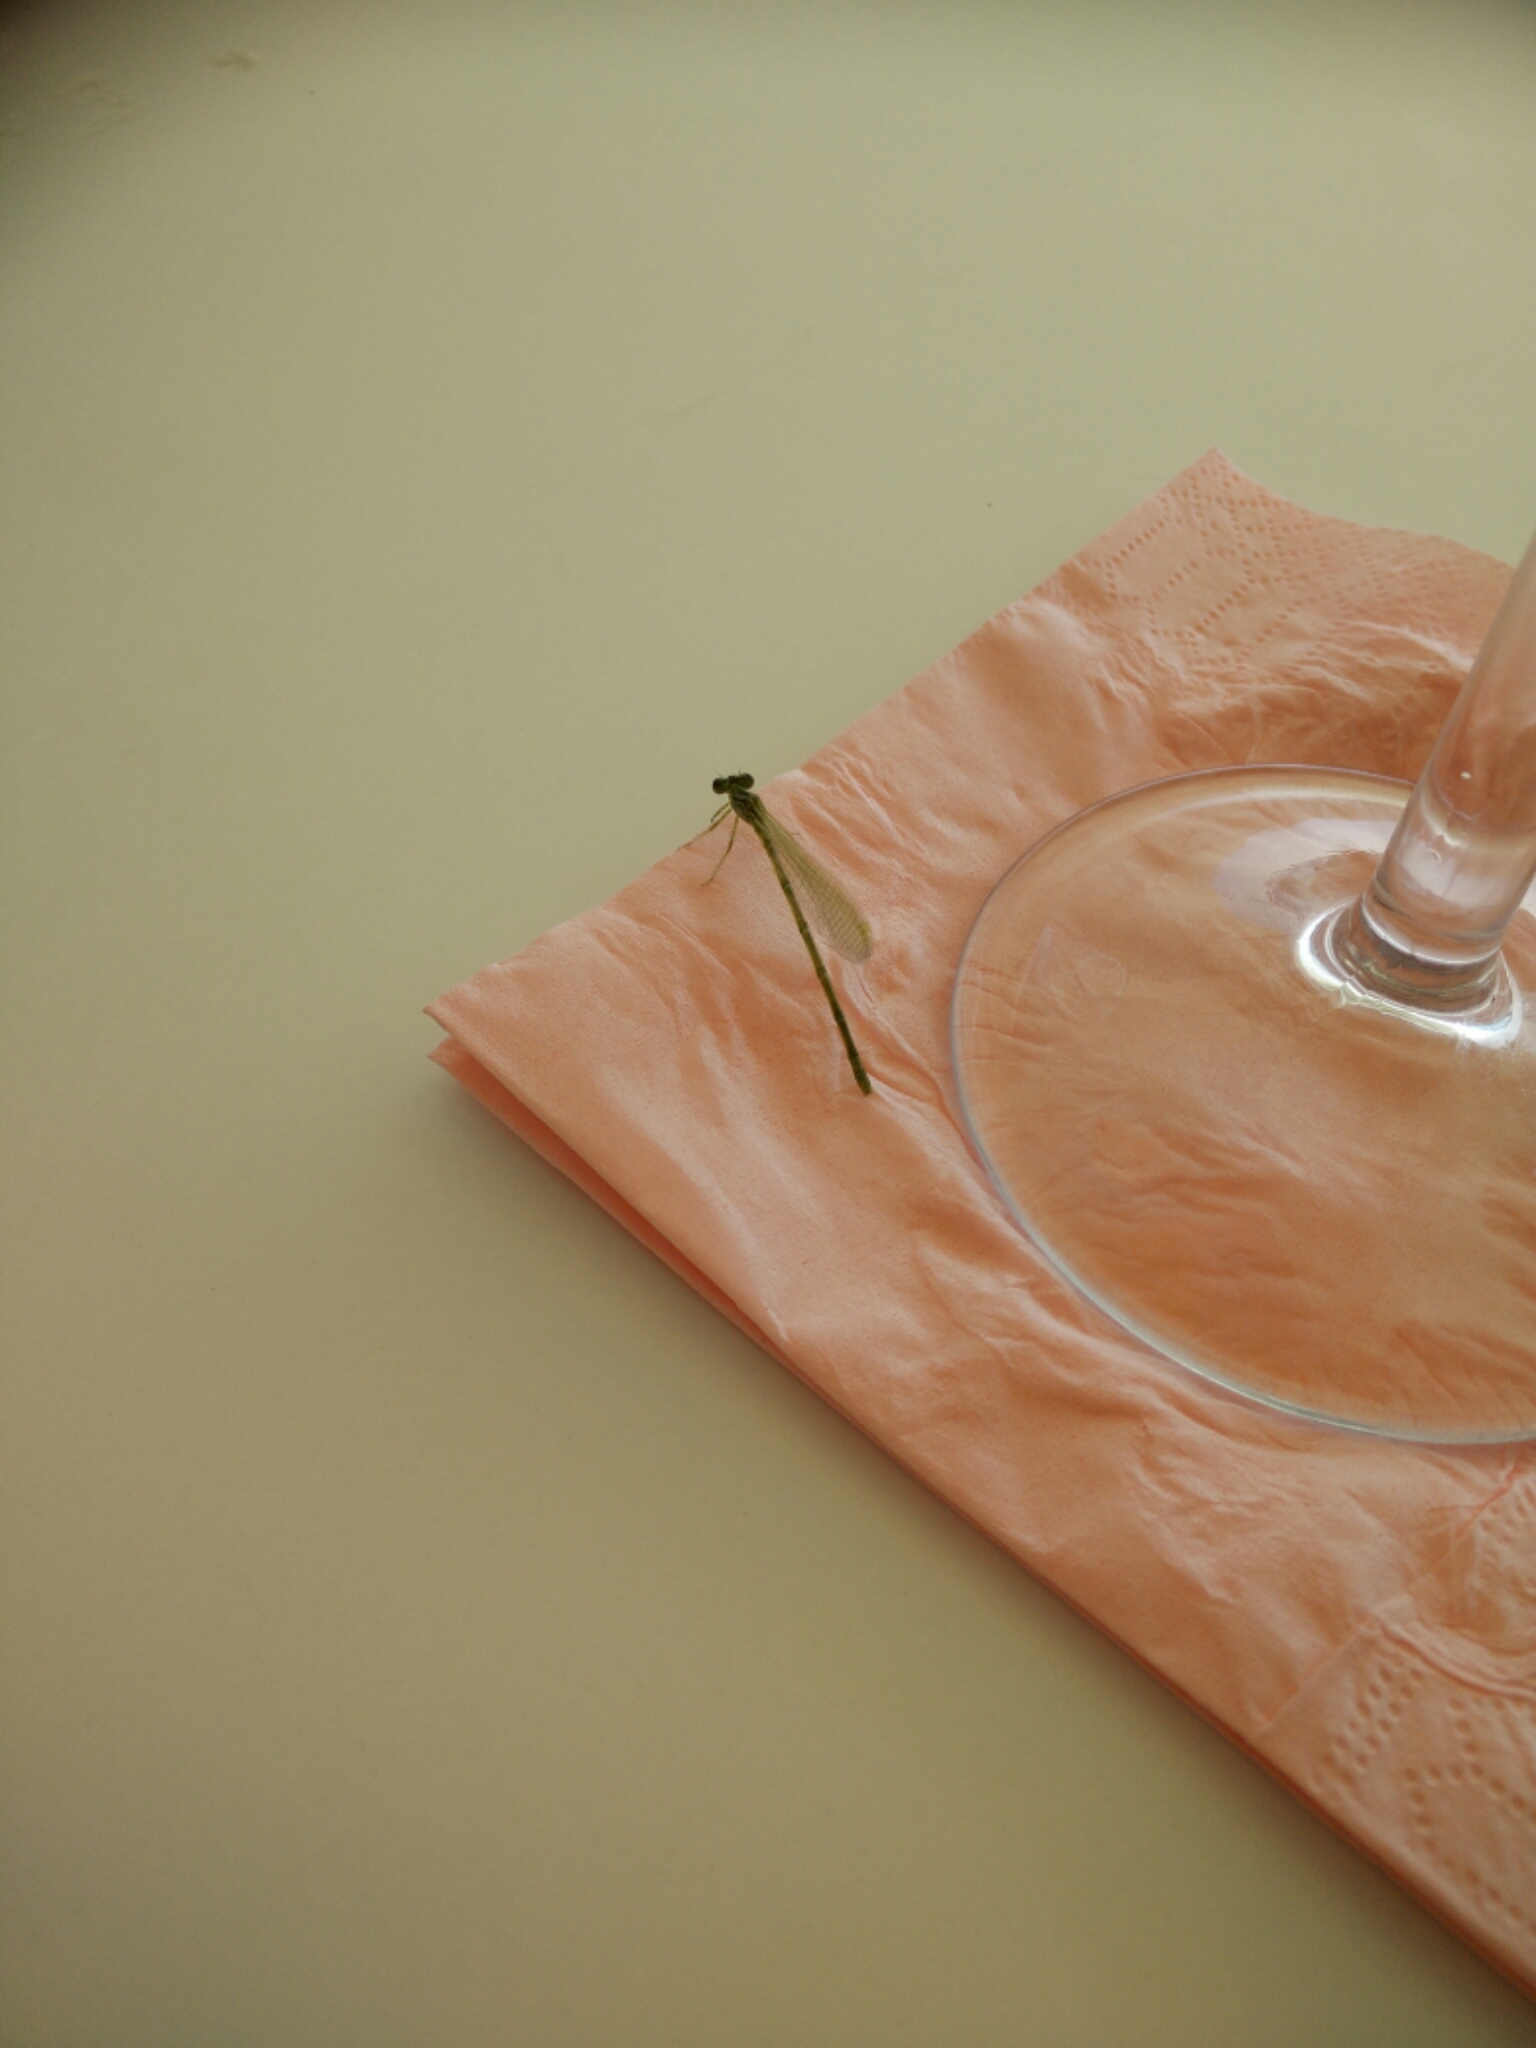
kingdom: Animalia
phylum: Arthropoda
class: Insecta
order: Odonata
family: Coenagrionidae
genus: Erythromma
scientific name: Erythromma lindenii
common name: Blue-eye
